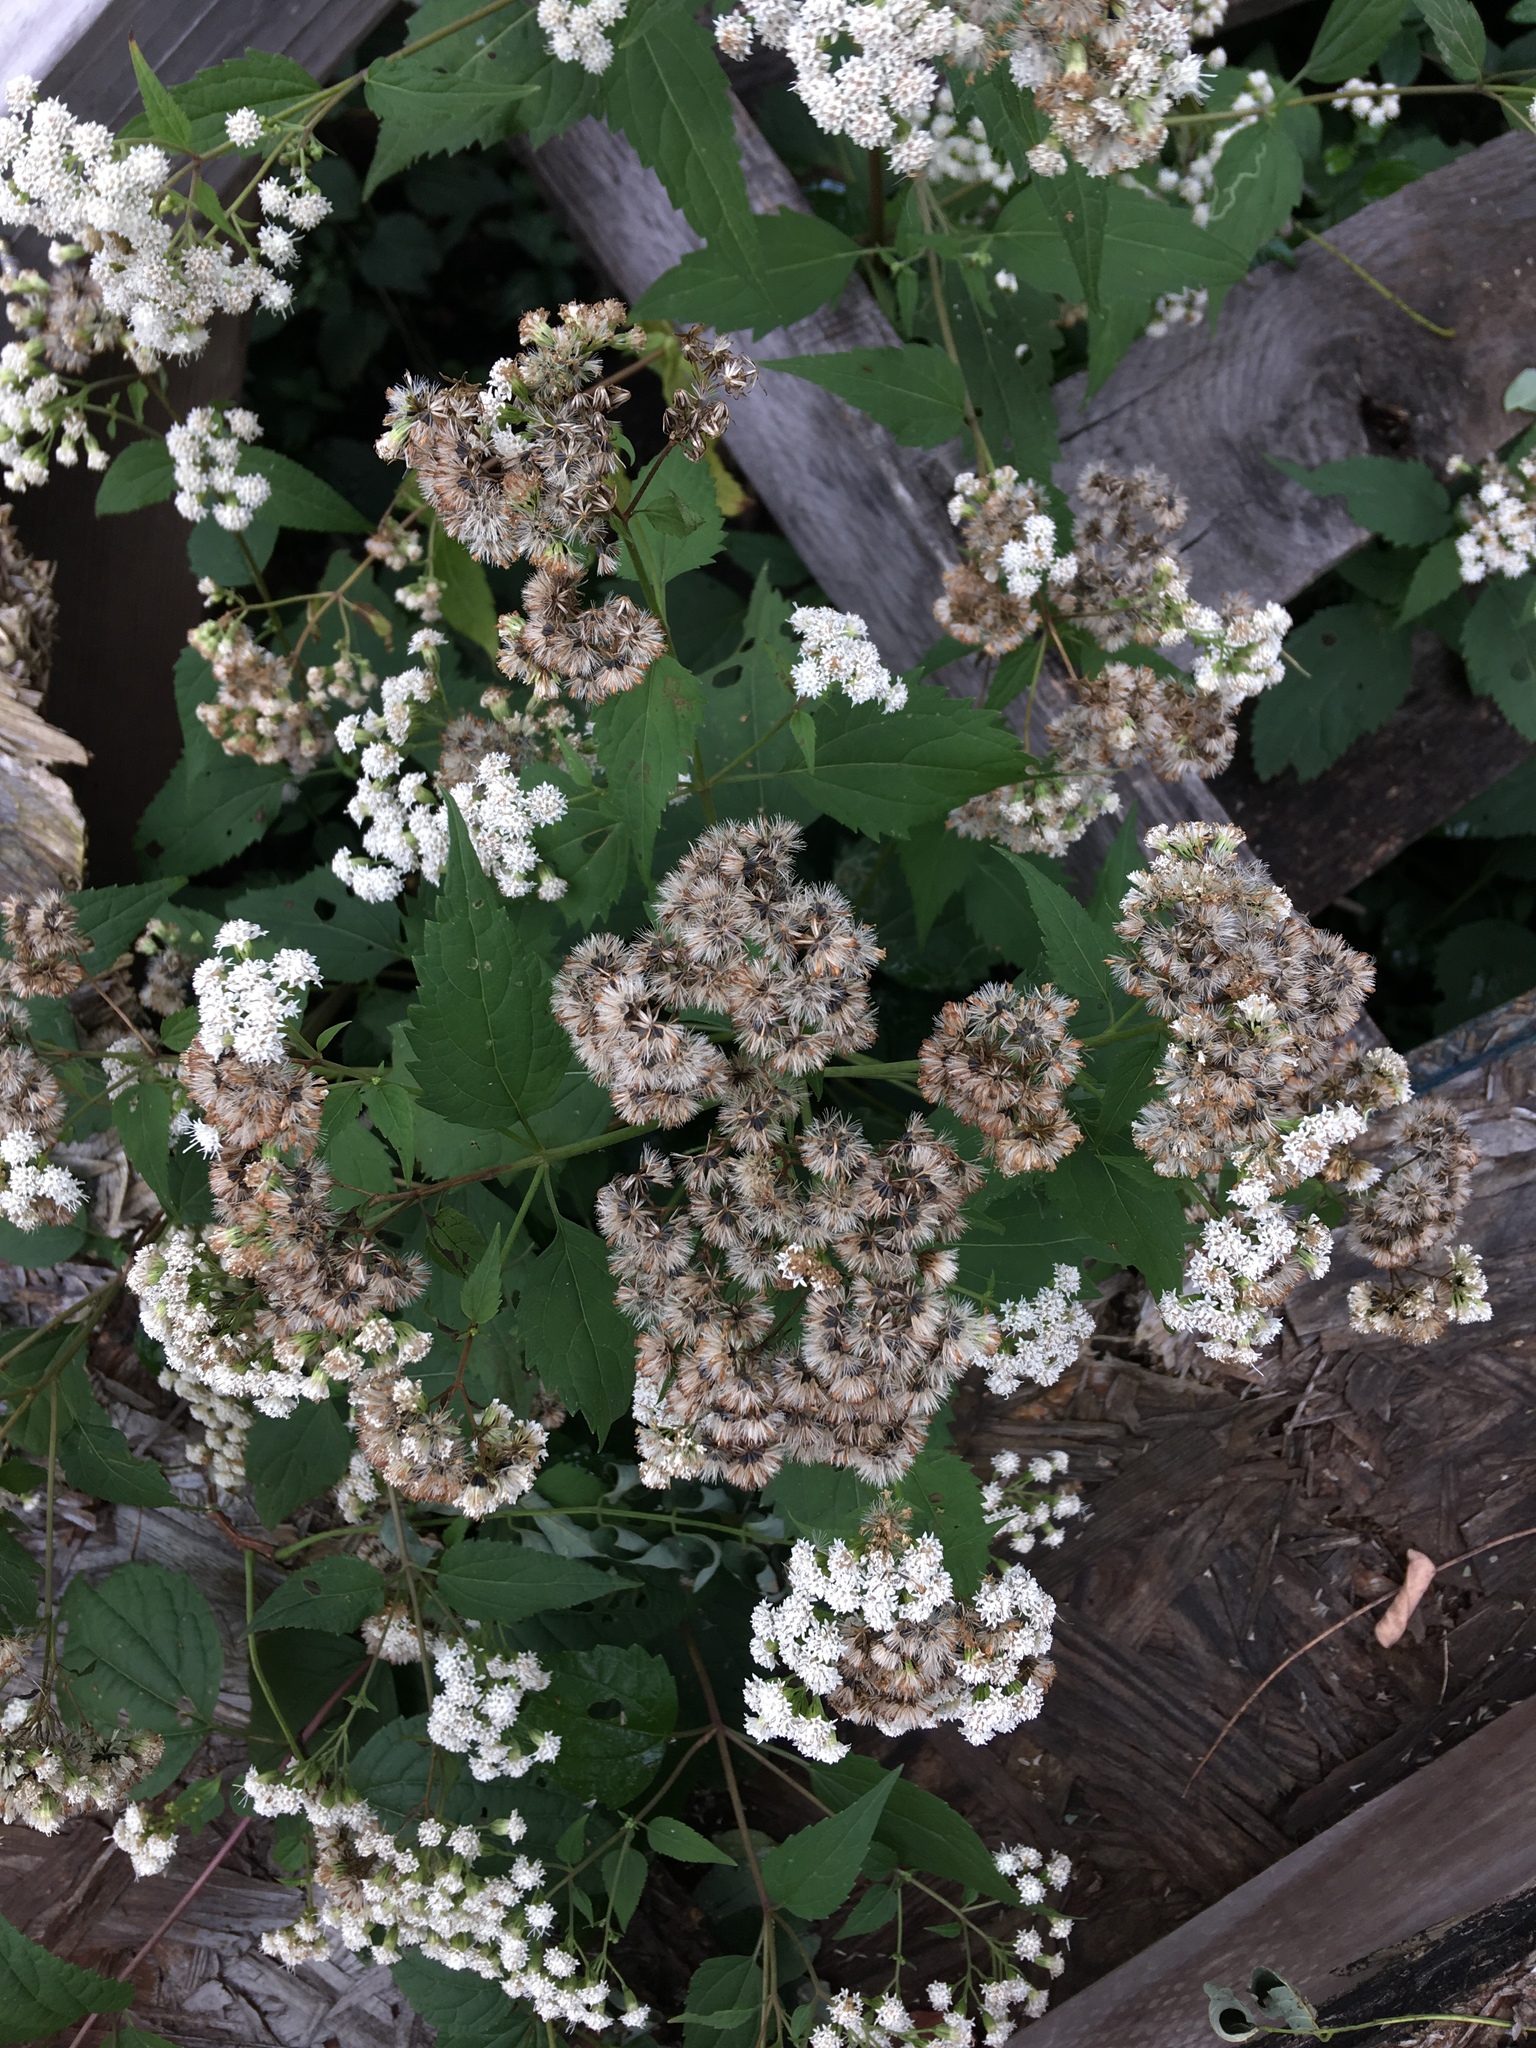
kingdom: Plantae
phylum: Tracheophyta
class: Magnoliopsida
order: Asterales
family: Asteraceae
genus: Ageratina
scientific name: Ageratina altissima
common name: White snakeroot
